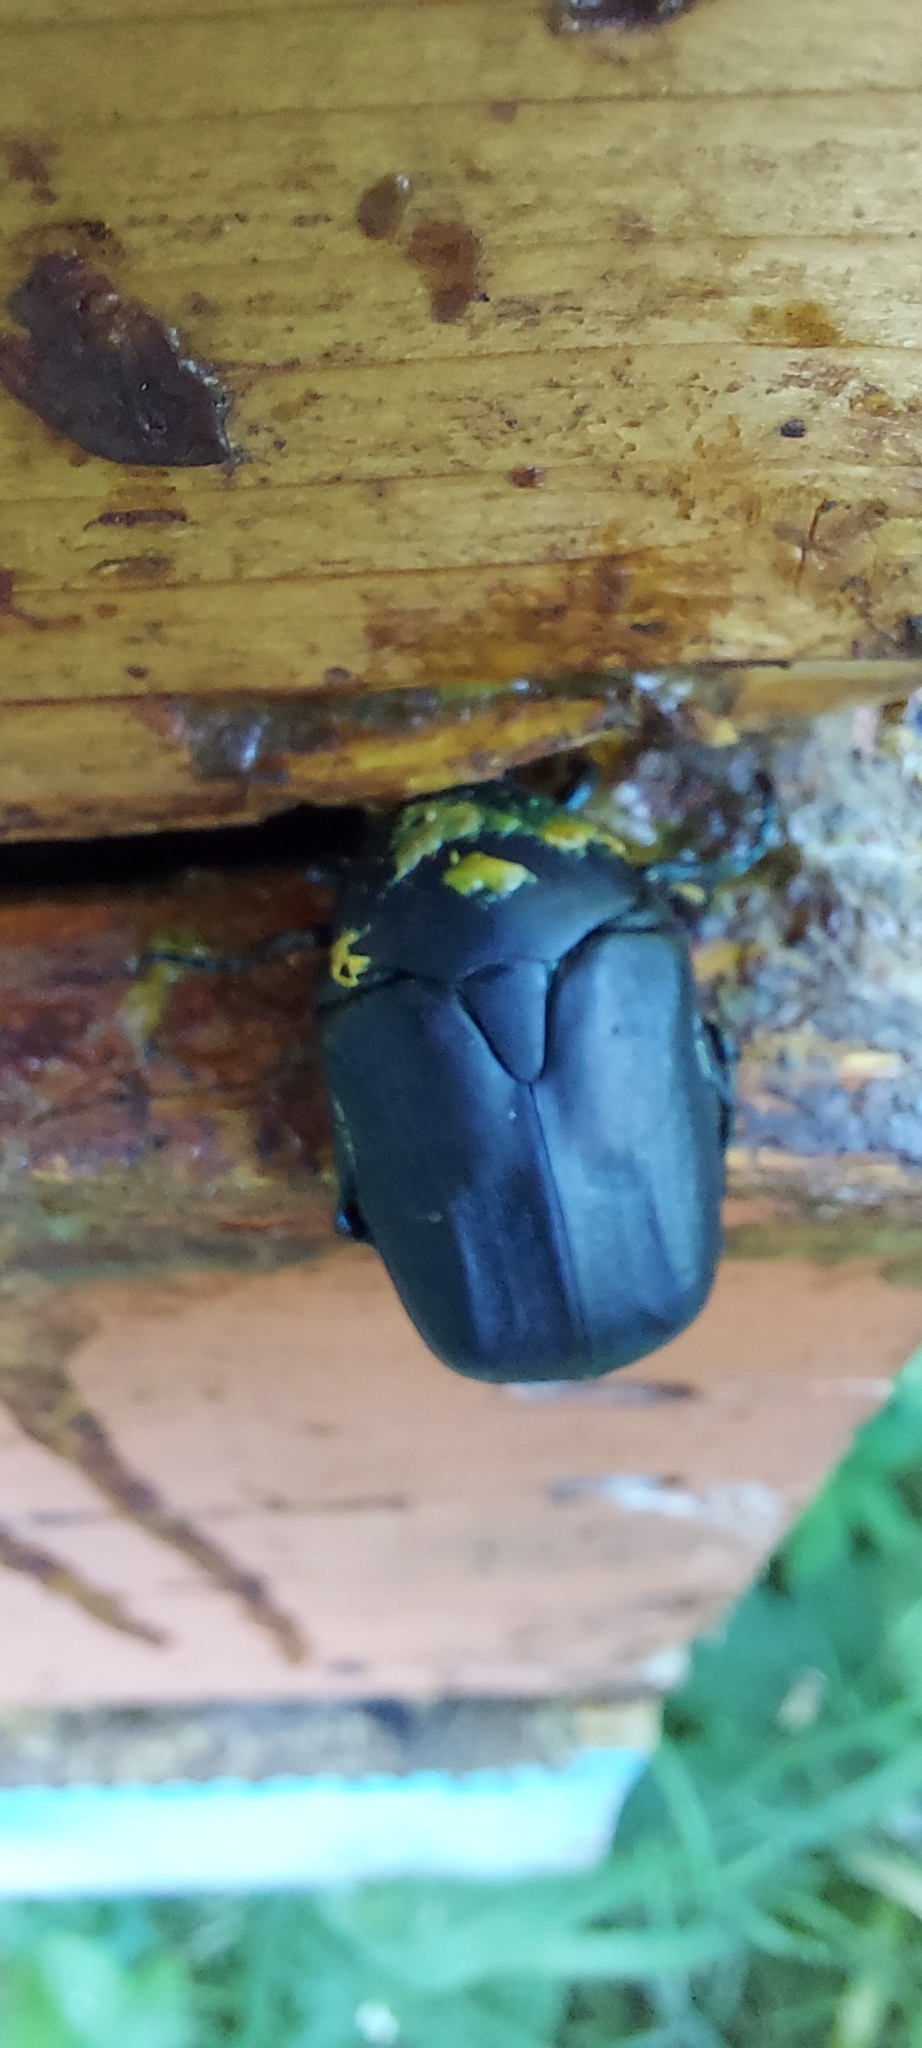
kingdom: Animalia
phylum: Arthropoda
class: Insecta
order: Coleoptera
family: Scarabaeidae
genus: Protaetia
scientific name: Protaetia opaca
